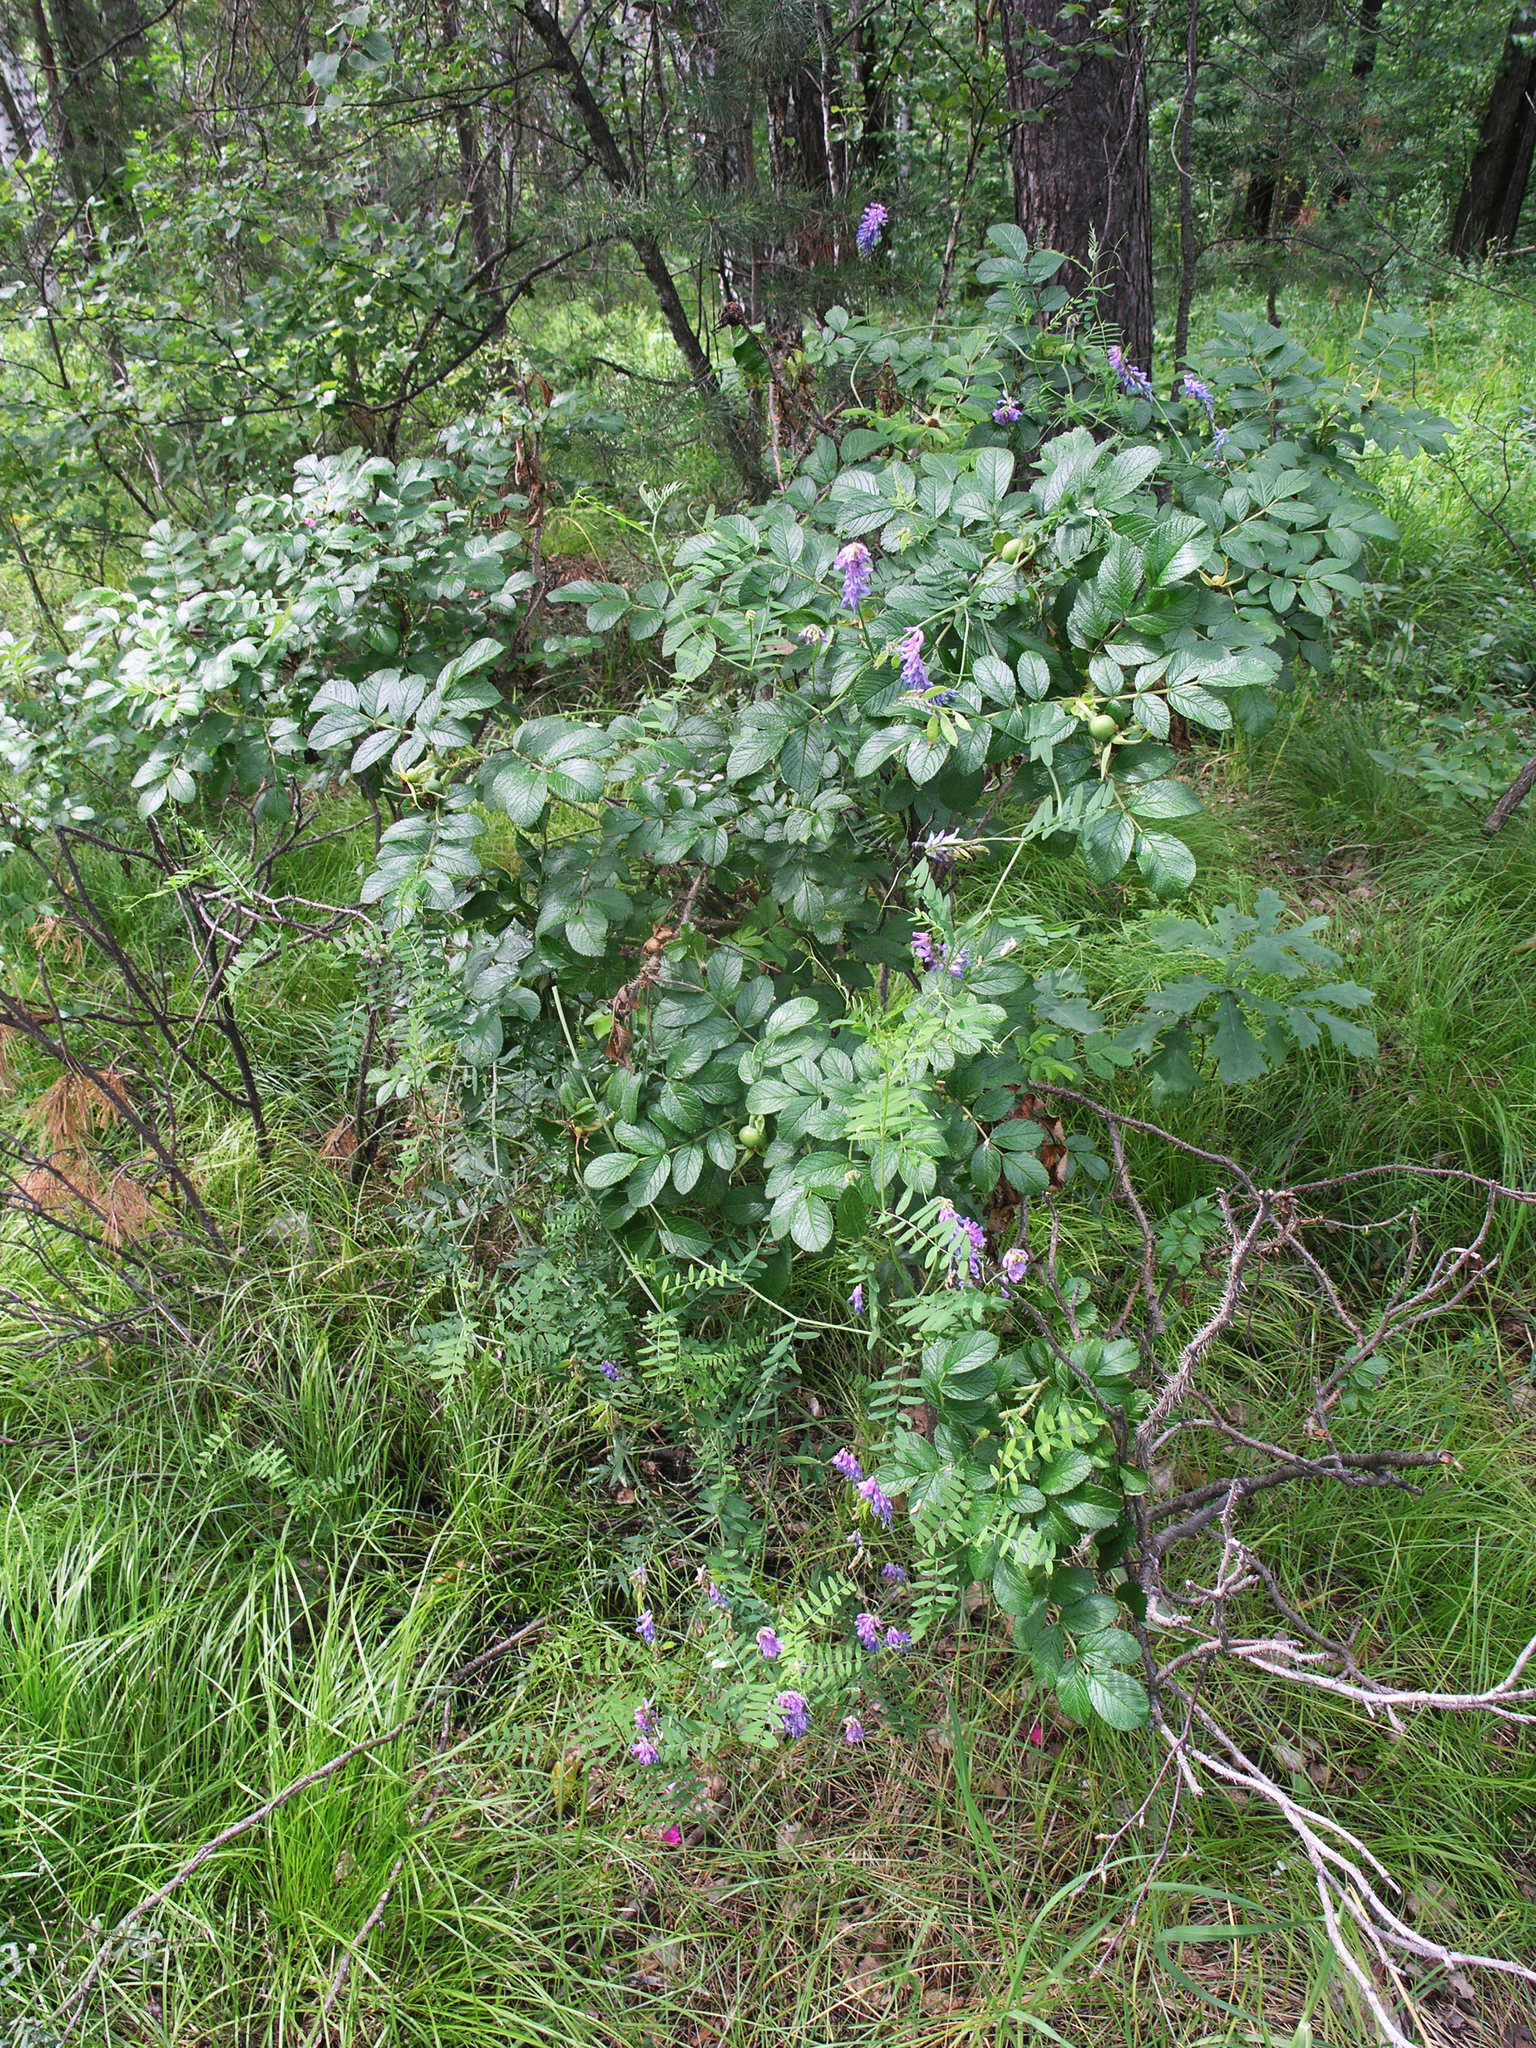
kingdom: Plantae
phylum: Tracheophyta
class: Magnoliopsida
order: Fabales
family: Fabaceae
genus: Vicia
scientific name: Vicia cracca
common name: Bird vetch
